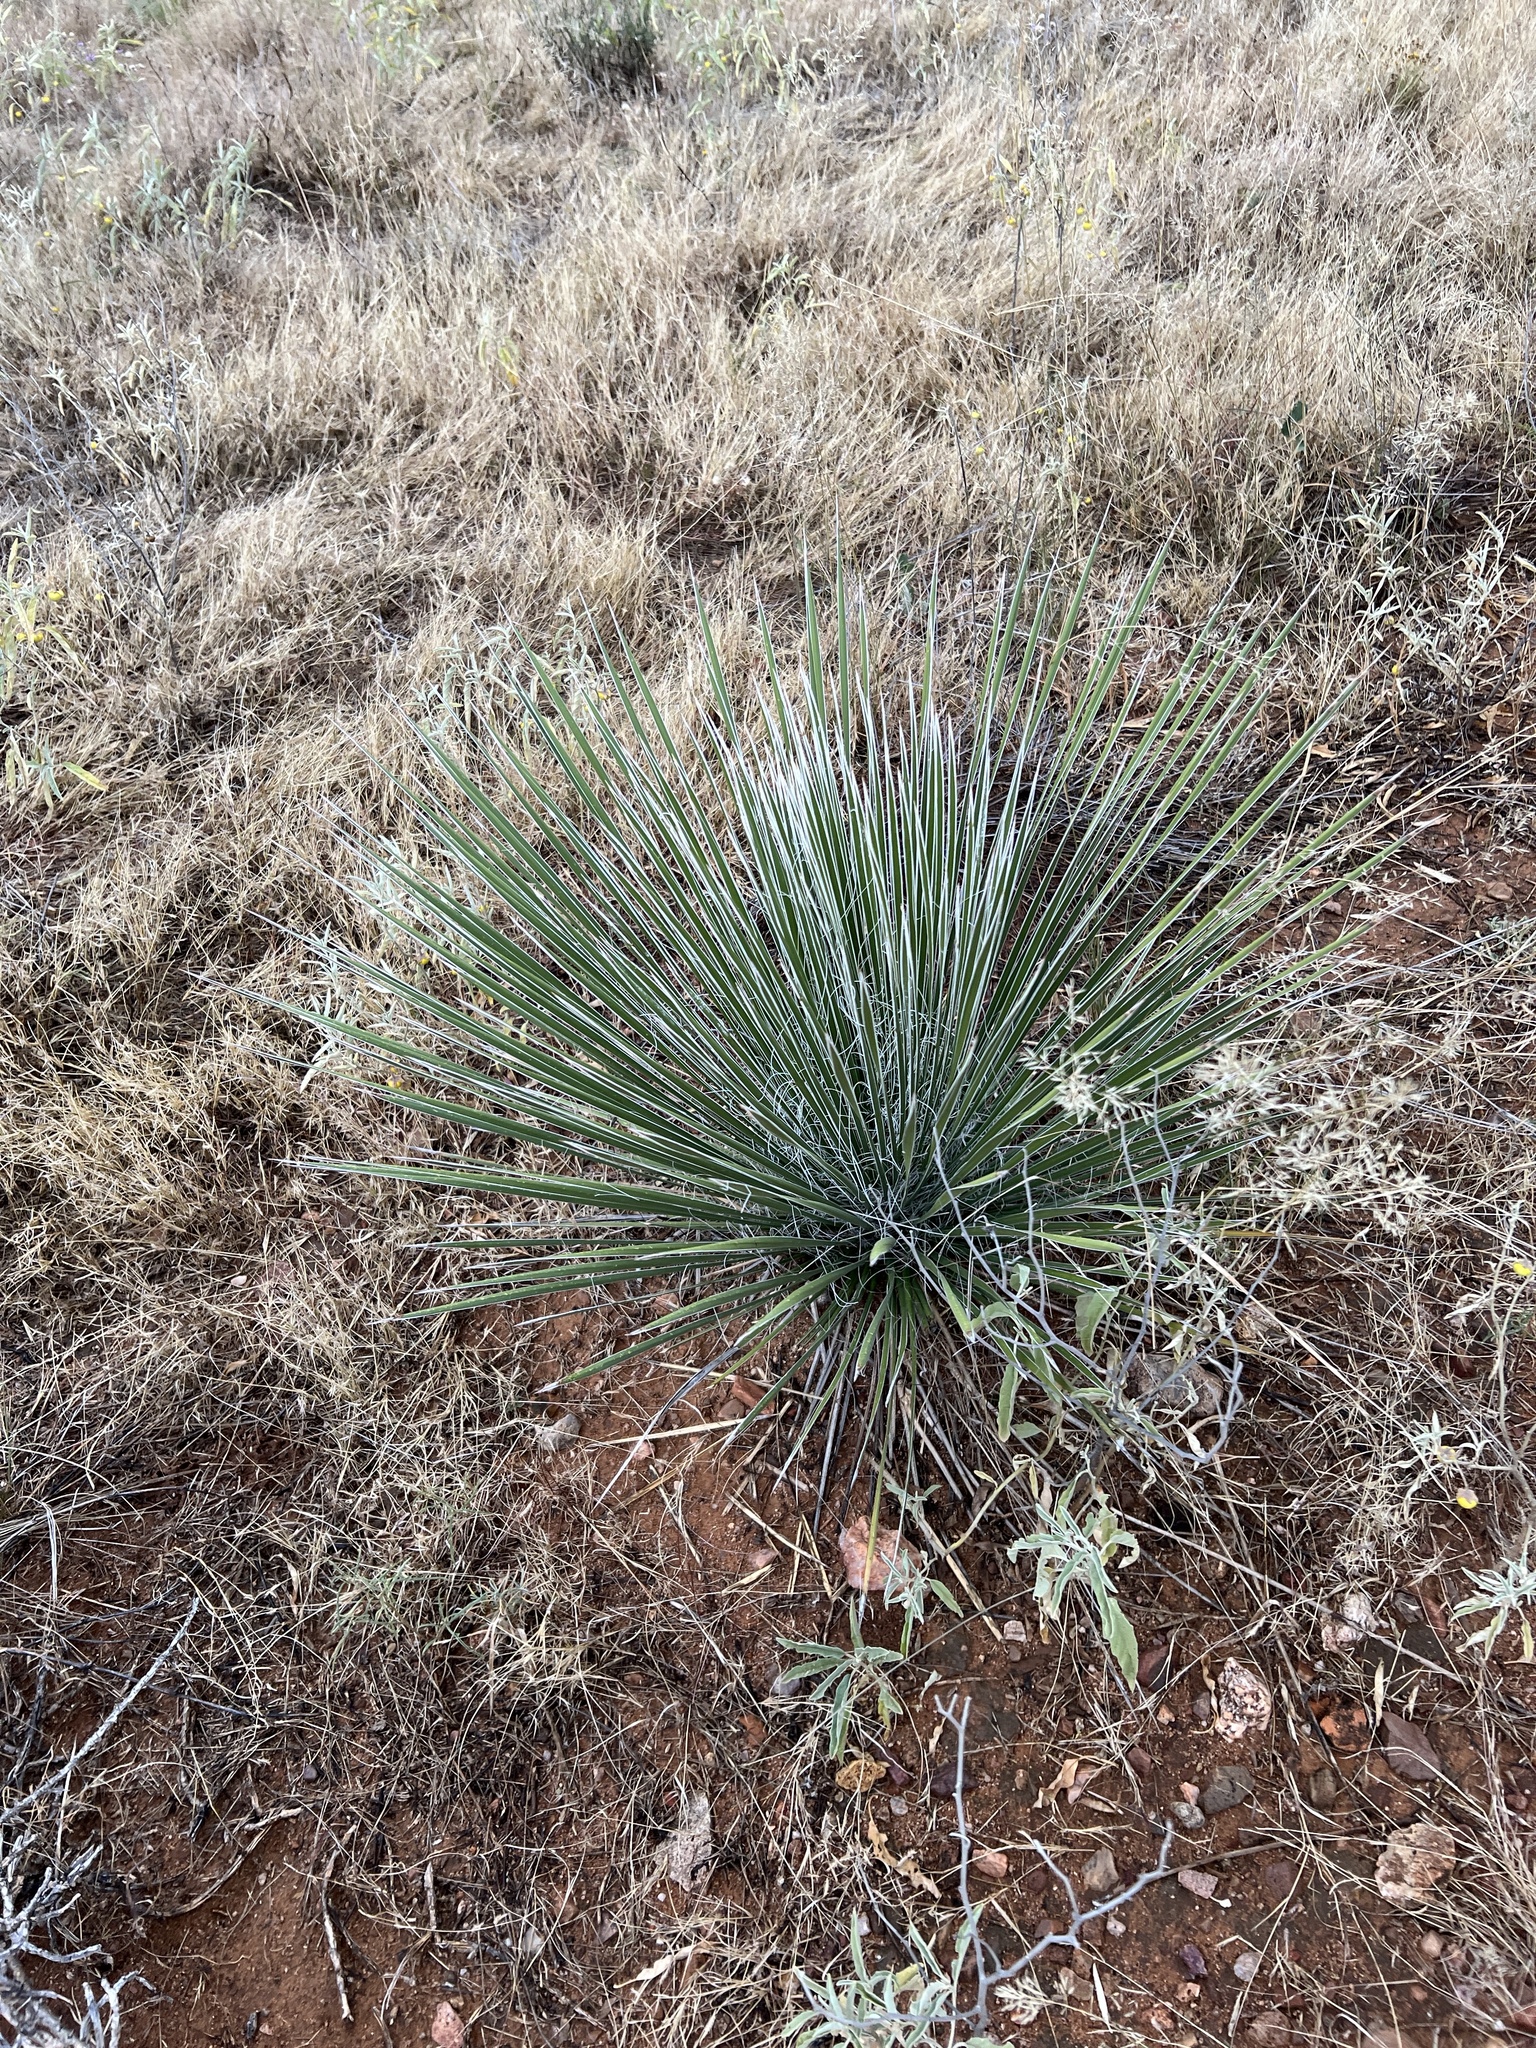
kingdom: Plantae
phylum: Tracheophyta
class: Liliopsida
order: Asparagales
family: Asparagaceae
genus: Yucca
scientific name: Yucca elata
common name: Palmella
